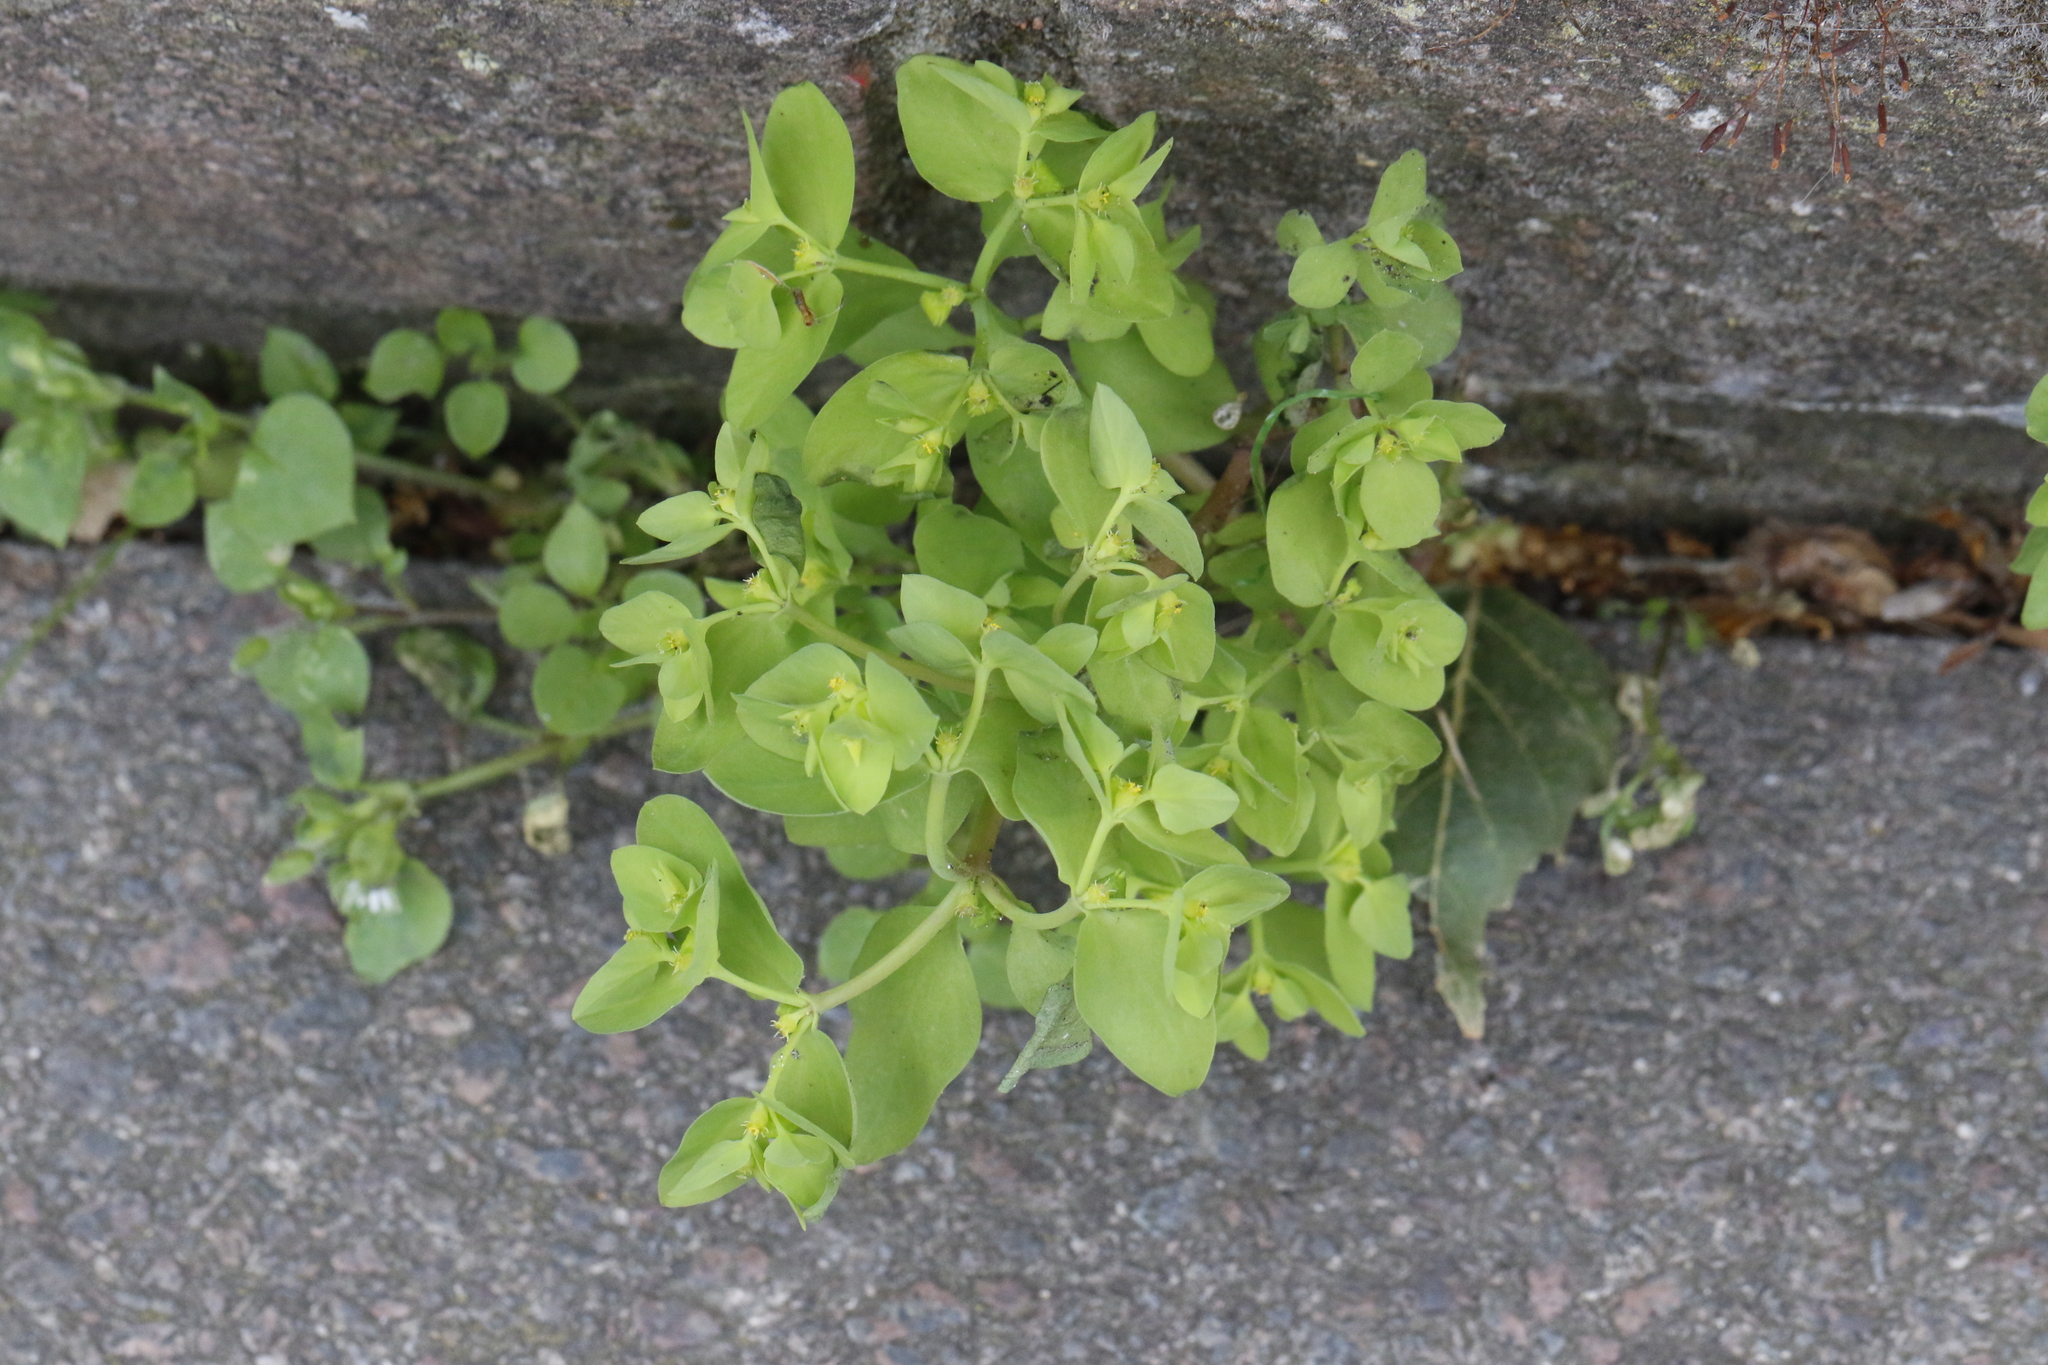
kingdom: Plantae
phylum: Tracheophyta
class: Magnoliopsida
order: Malpighiales
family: Euphorbiaceae
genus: Euphorbia
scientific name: Euphorbia peplus
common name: Petty spurge
